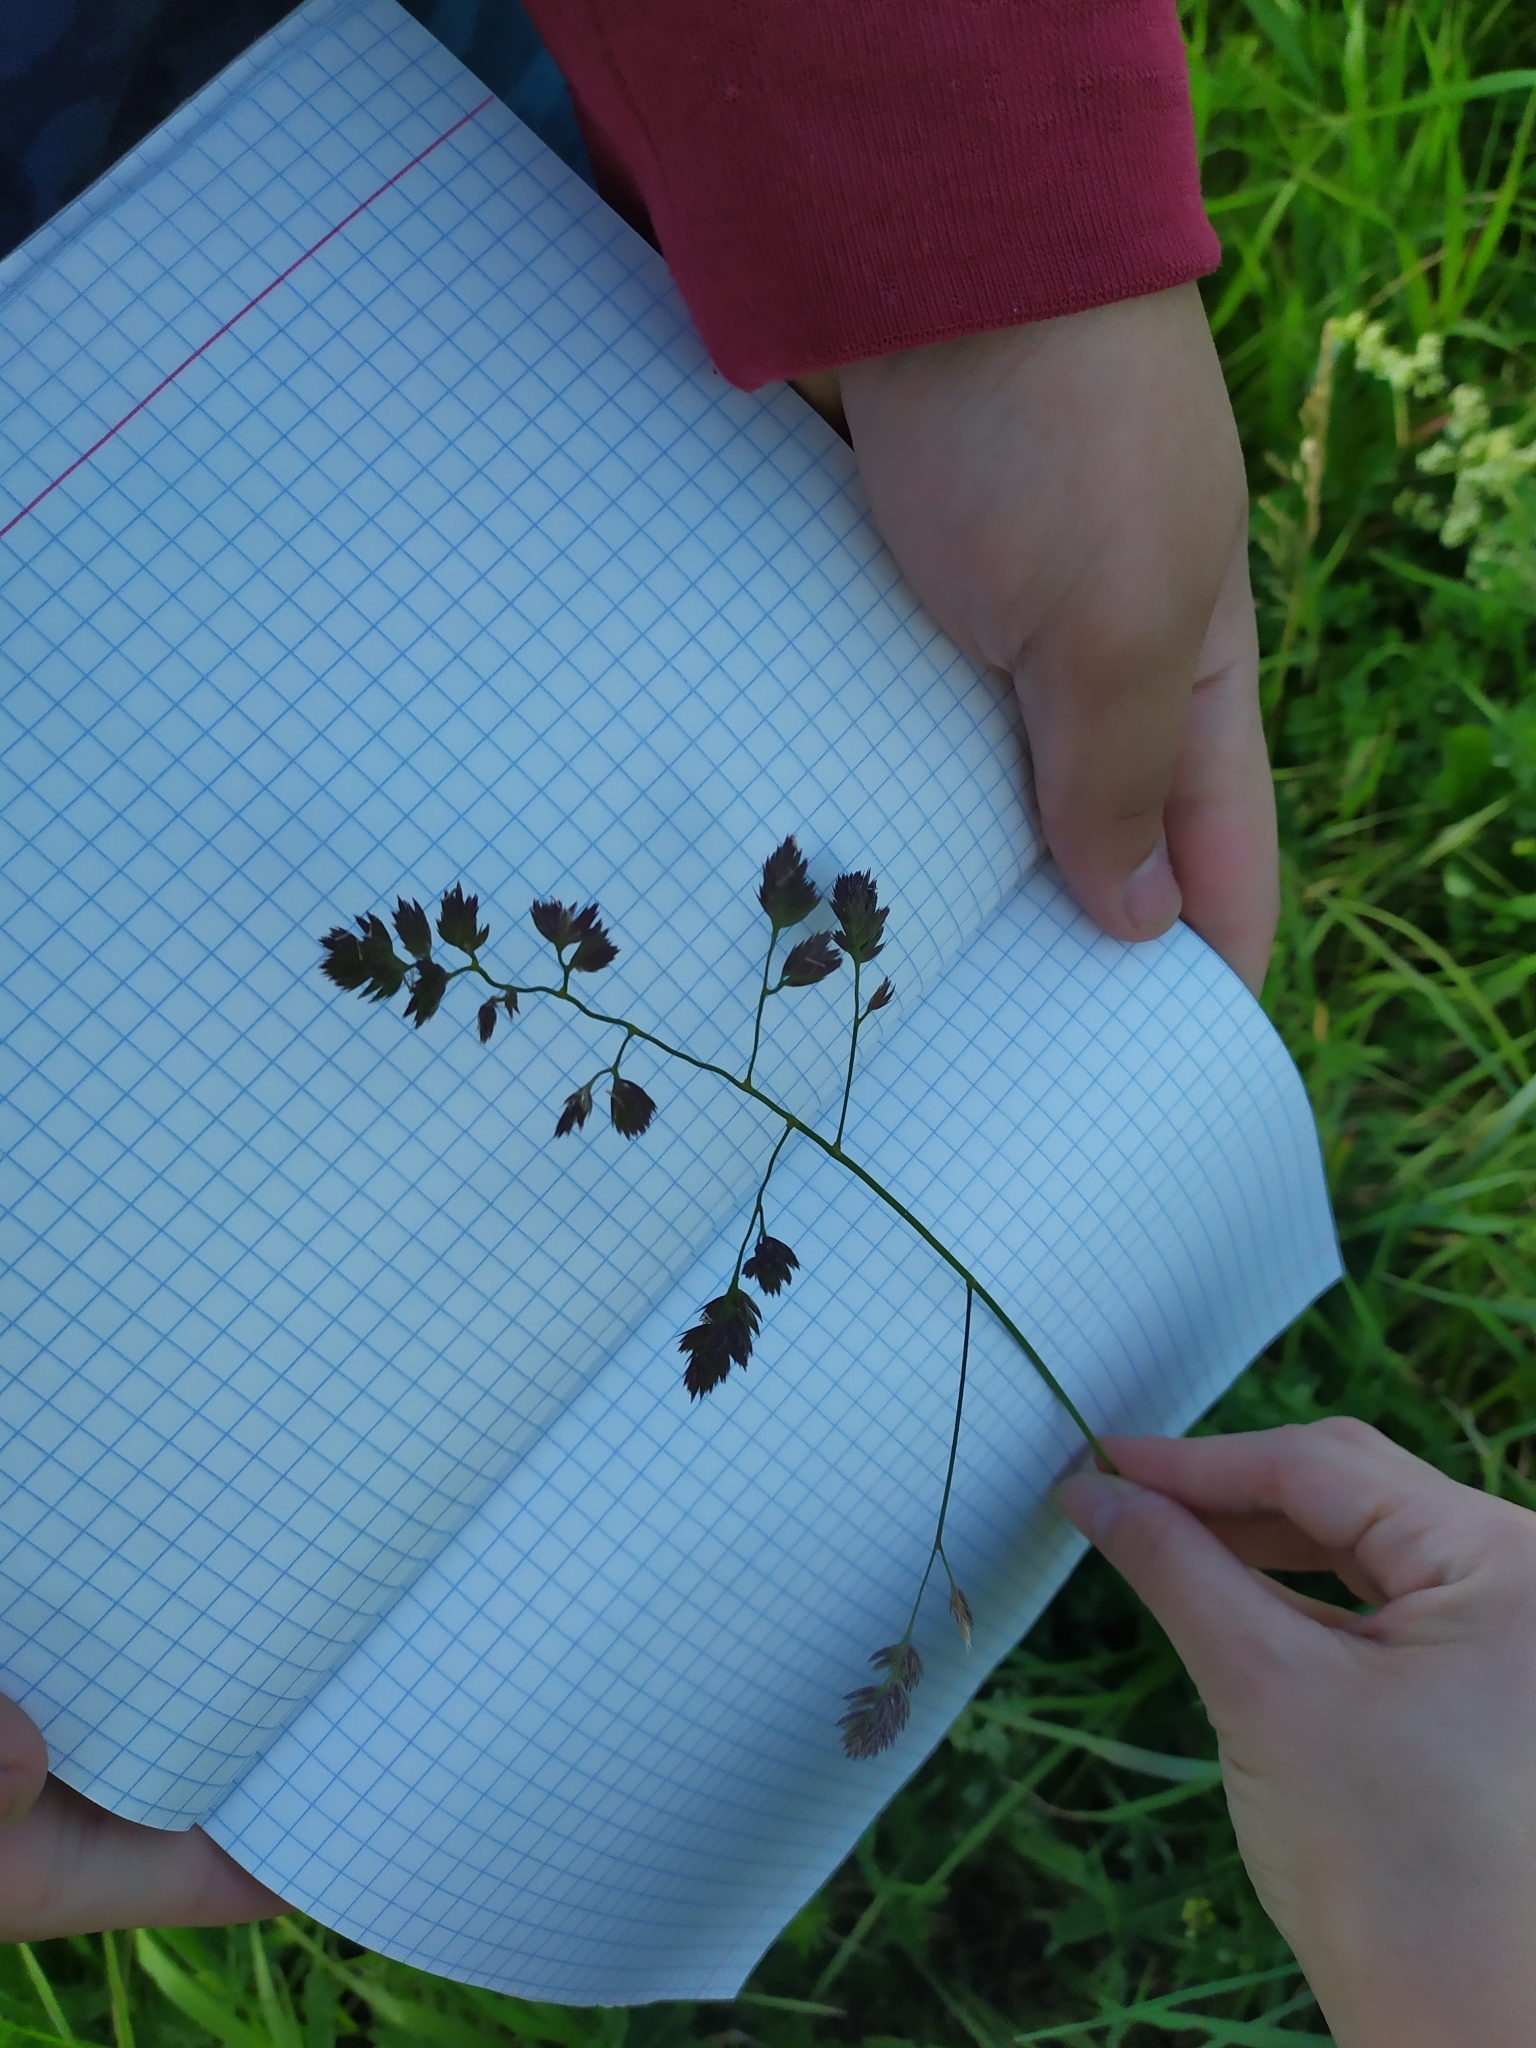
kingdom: Plantae
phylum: Tracheophyta
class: Liliopsida
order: Poales
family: Poaceae
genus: Dactylis
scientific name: Dactylis glomerata
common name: Orchardgrass
